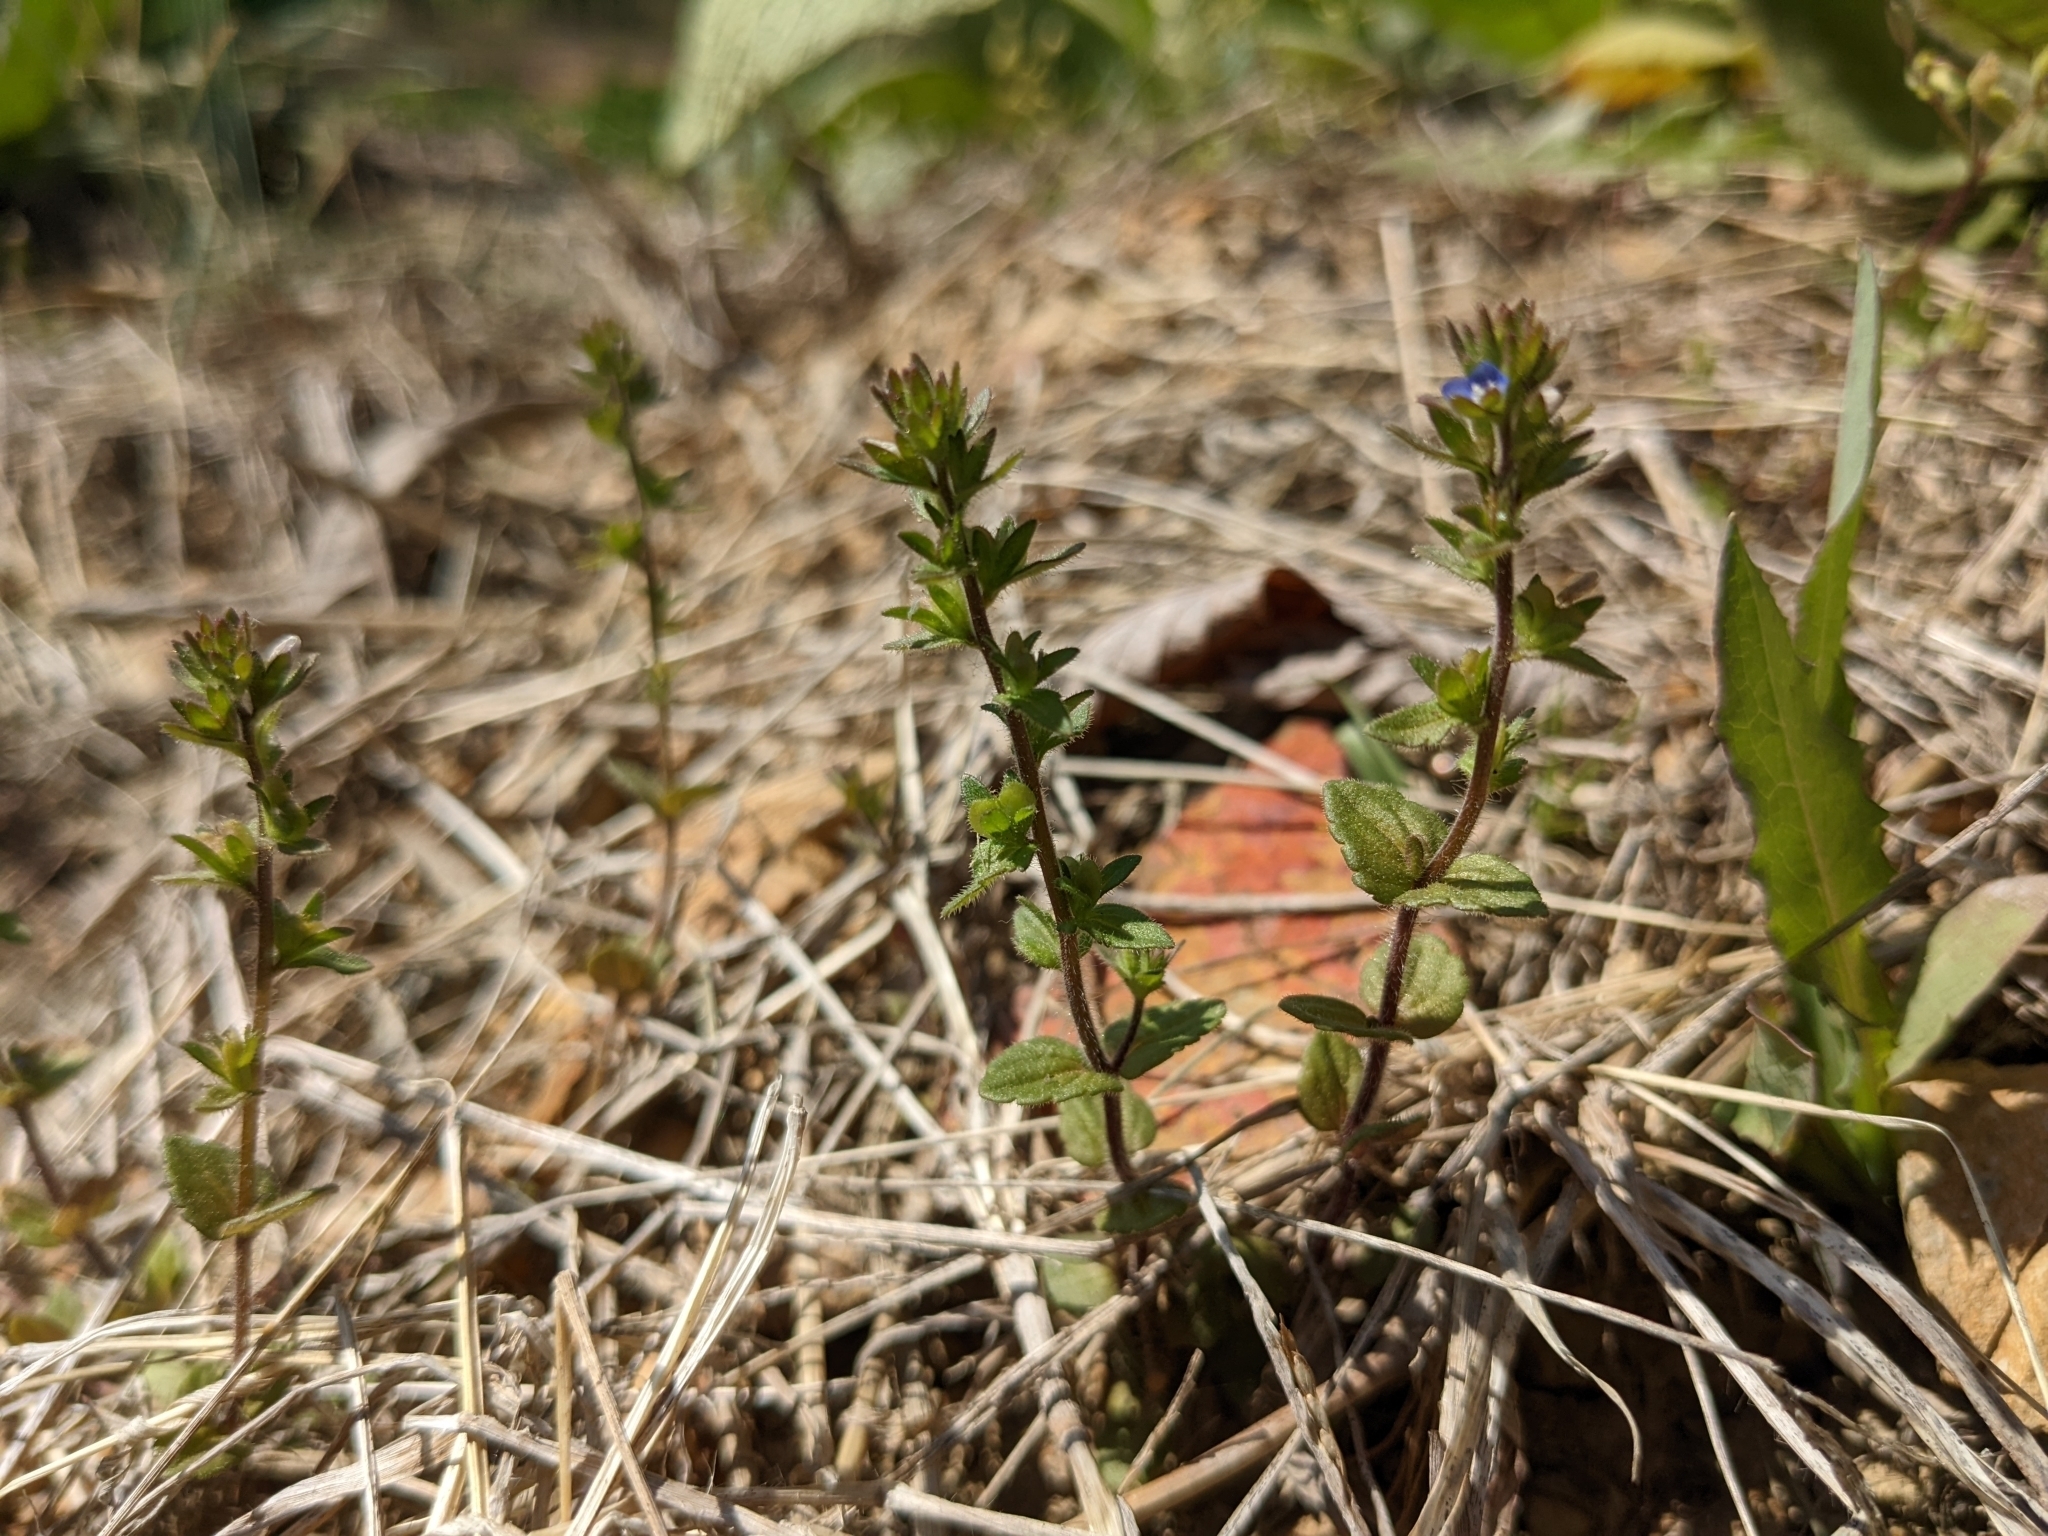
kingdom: Plantae
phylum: Tracheophyta
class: Magnoliopsida
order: Lamiales
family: Plantaginaceae
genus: Veronica
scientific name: Veronica arvensis
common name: Corn speedwell
